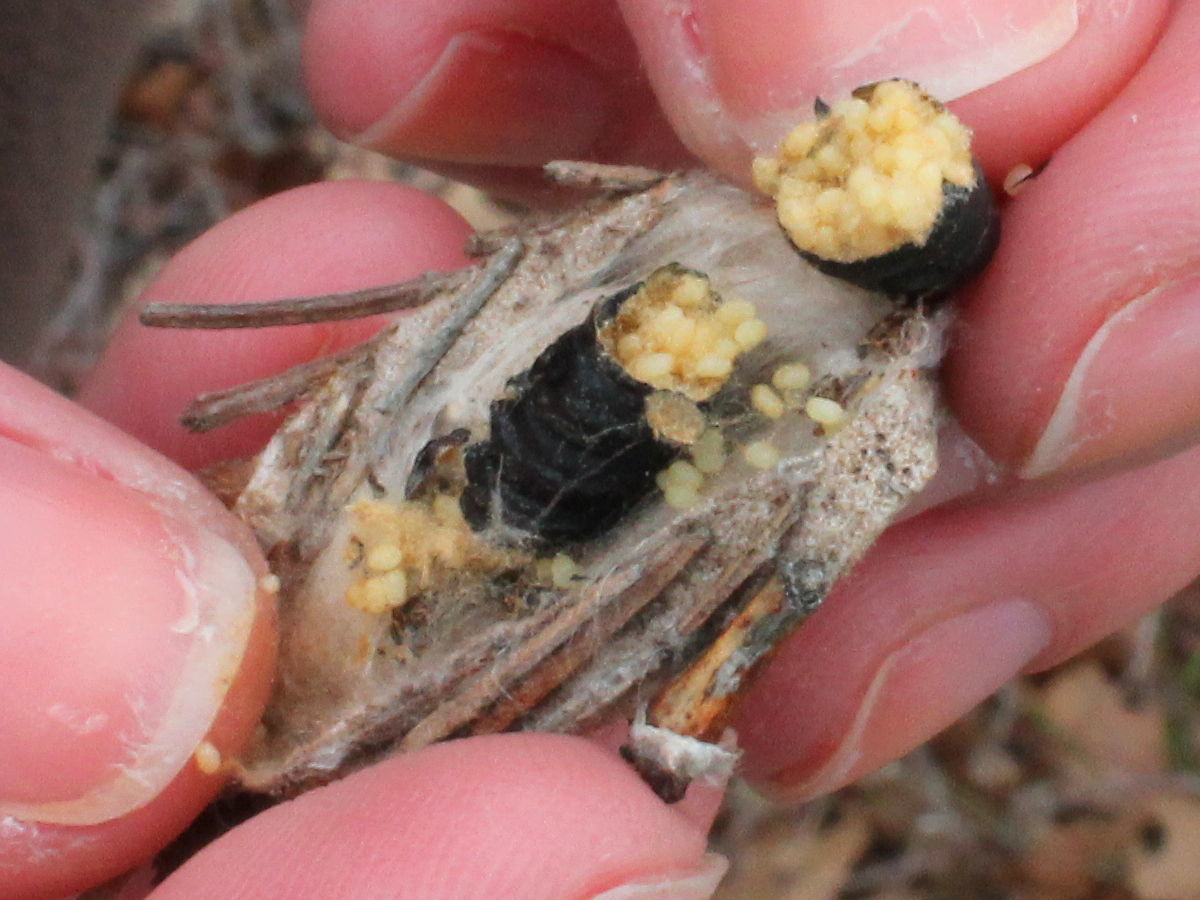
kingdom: Animalia
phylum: Arthropoda
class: Insecta
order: Lepidoptera
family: Psychidae
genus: Thyridopteryx
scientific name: Thyridopteryx ephemeraeformis
